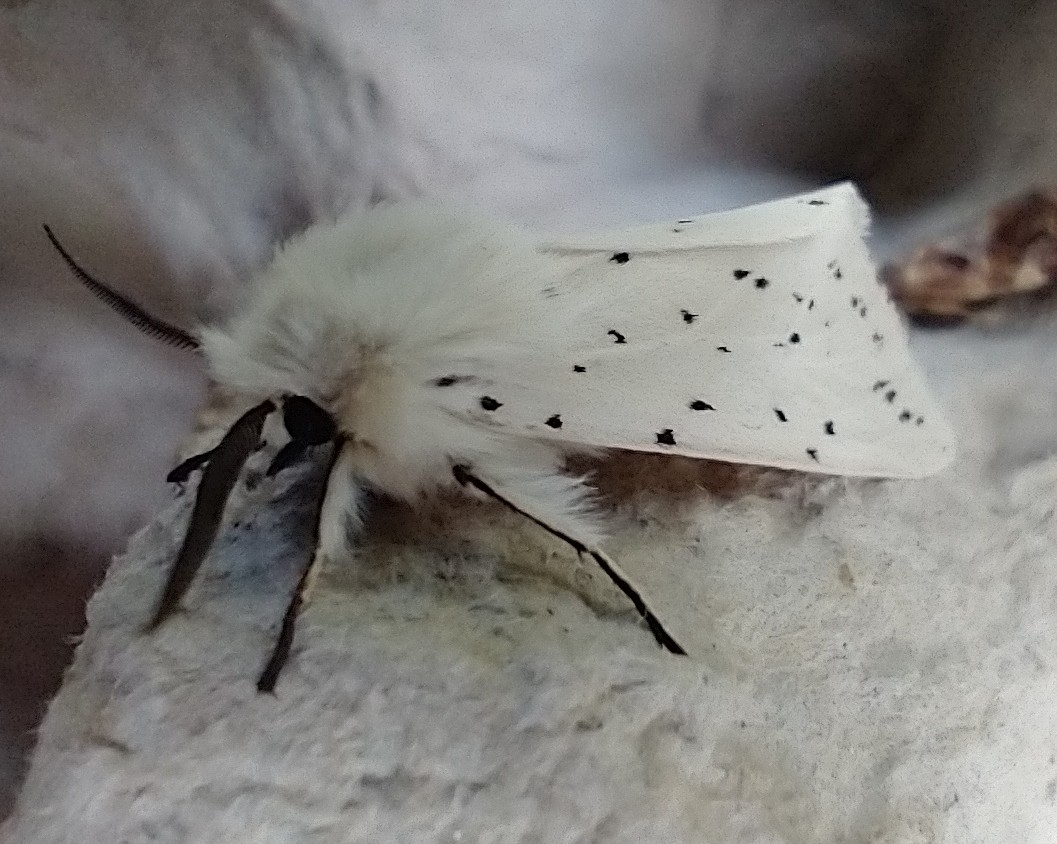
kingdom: Animalia
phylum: Arthropoda
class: Insecta
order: Lepidoptera
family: Erebidae
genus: Spilosoma
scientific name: Spilosoma lubricipeda
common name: White ermine
